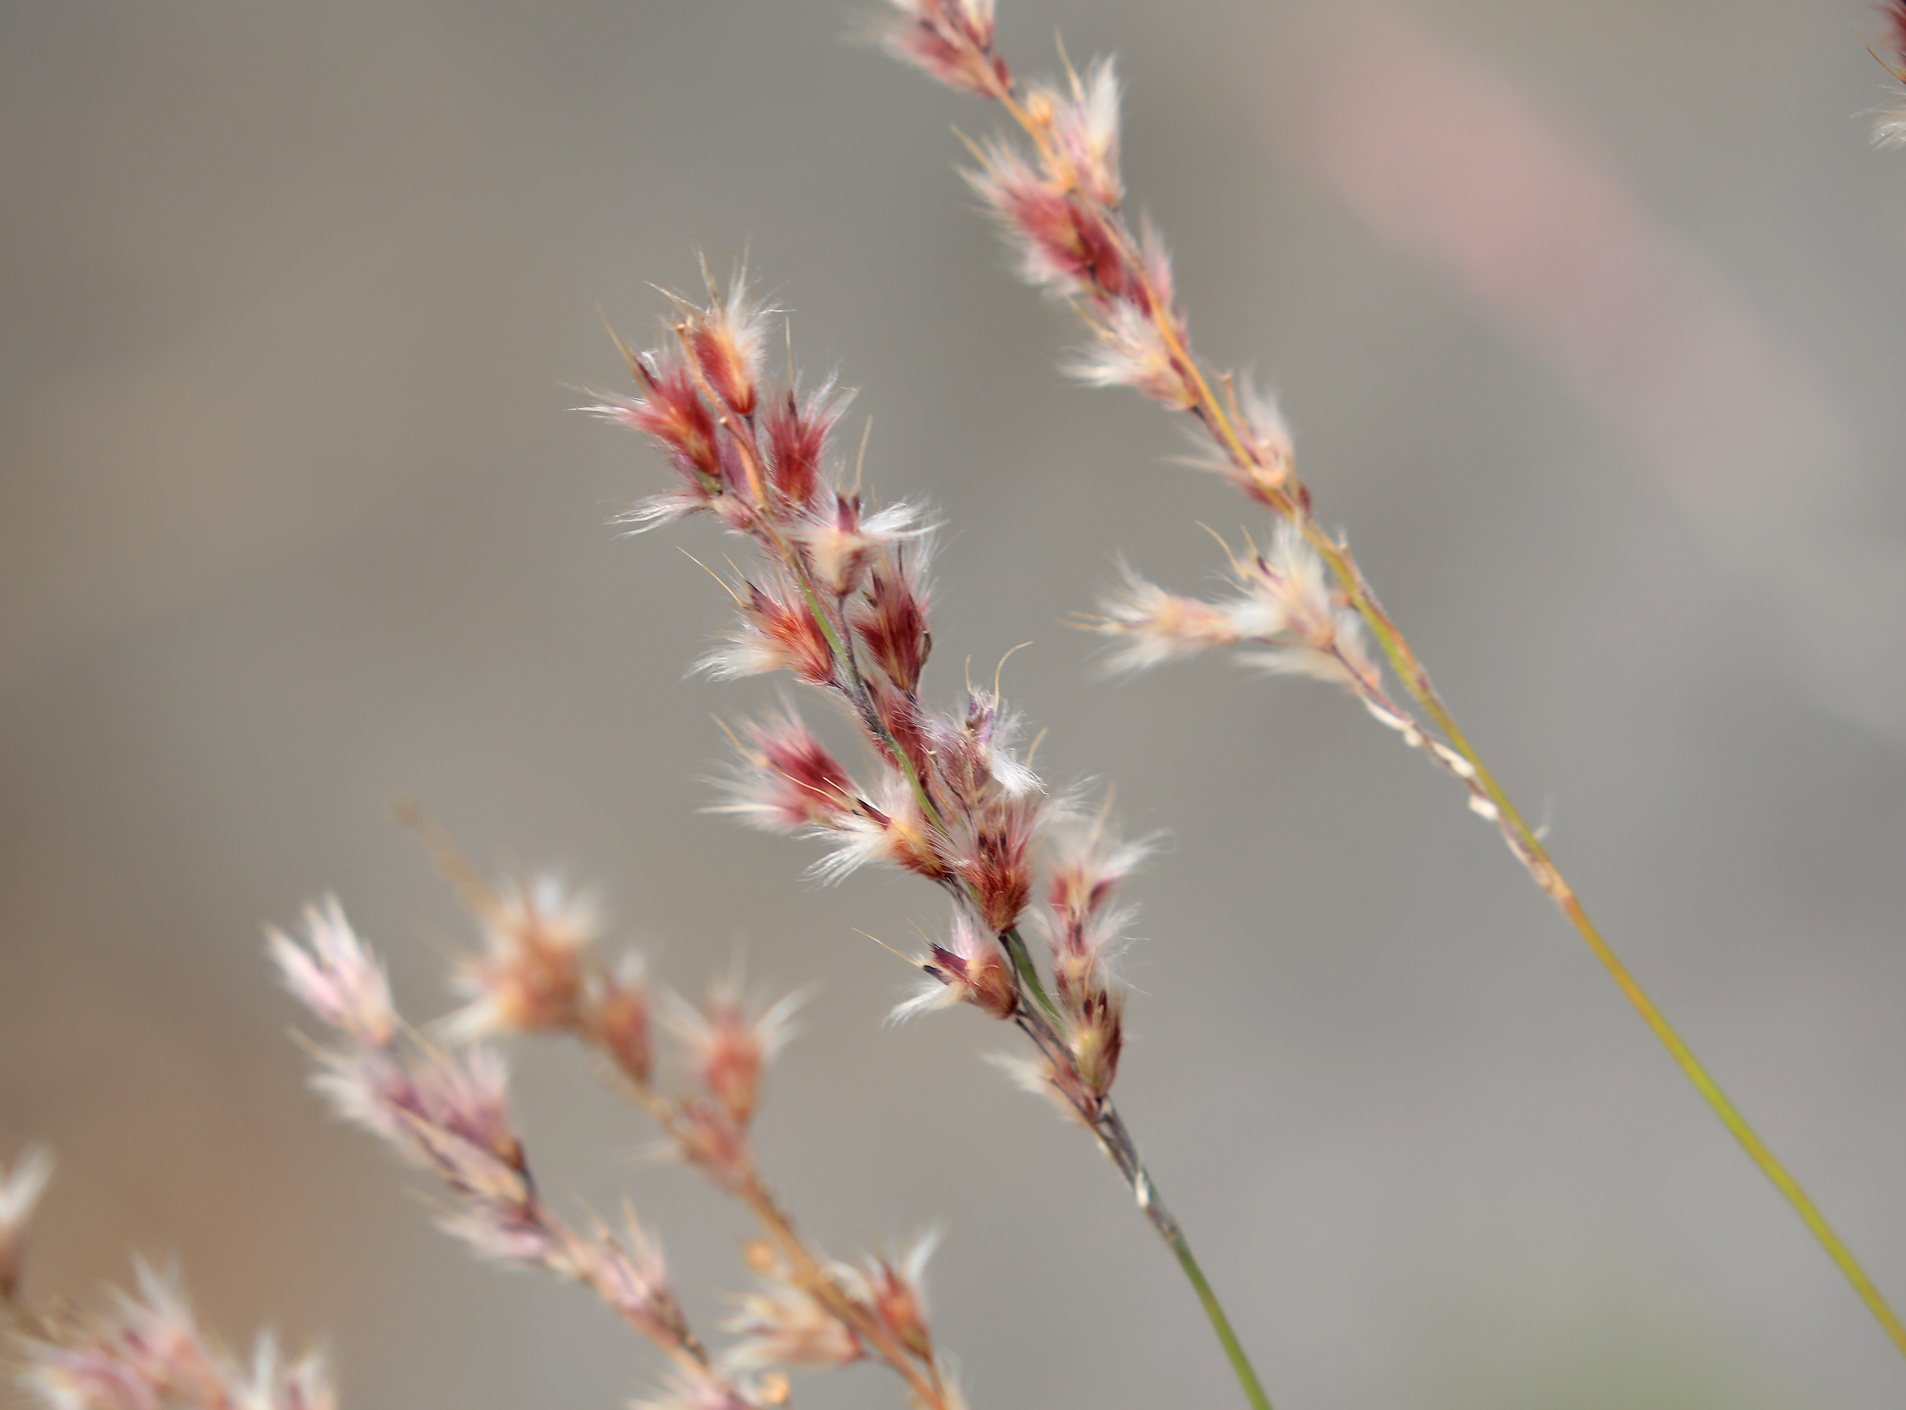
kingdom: Plantae
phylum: Tracheophyta
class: Liliopsida
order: Poales
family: Poaceae
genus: Melinis
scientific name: Melinis nerviglumis
